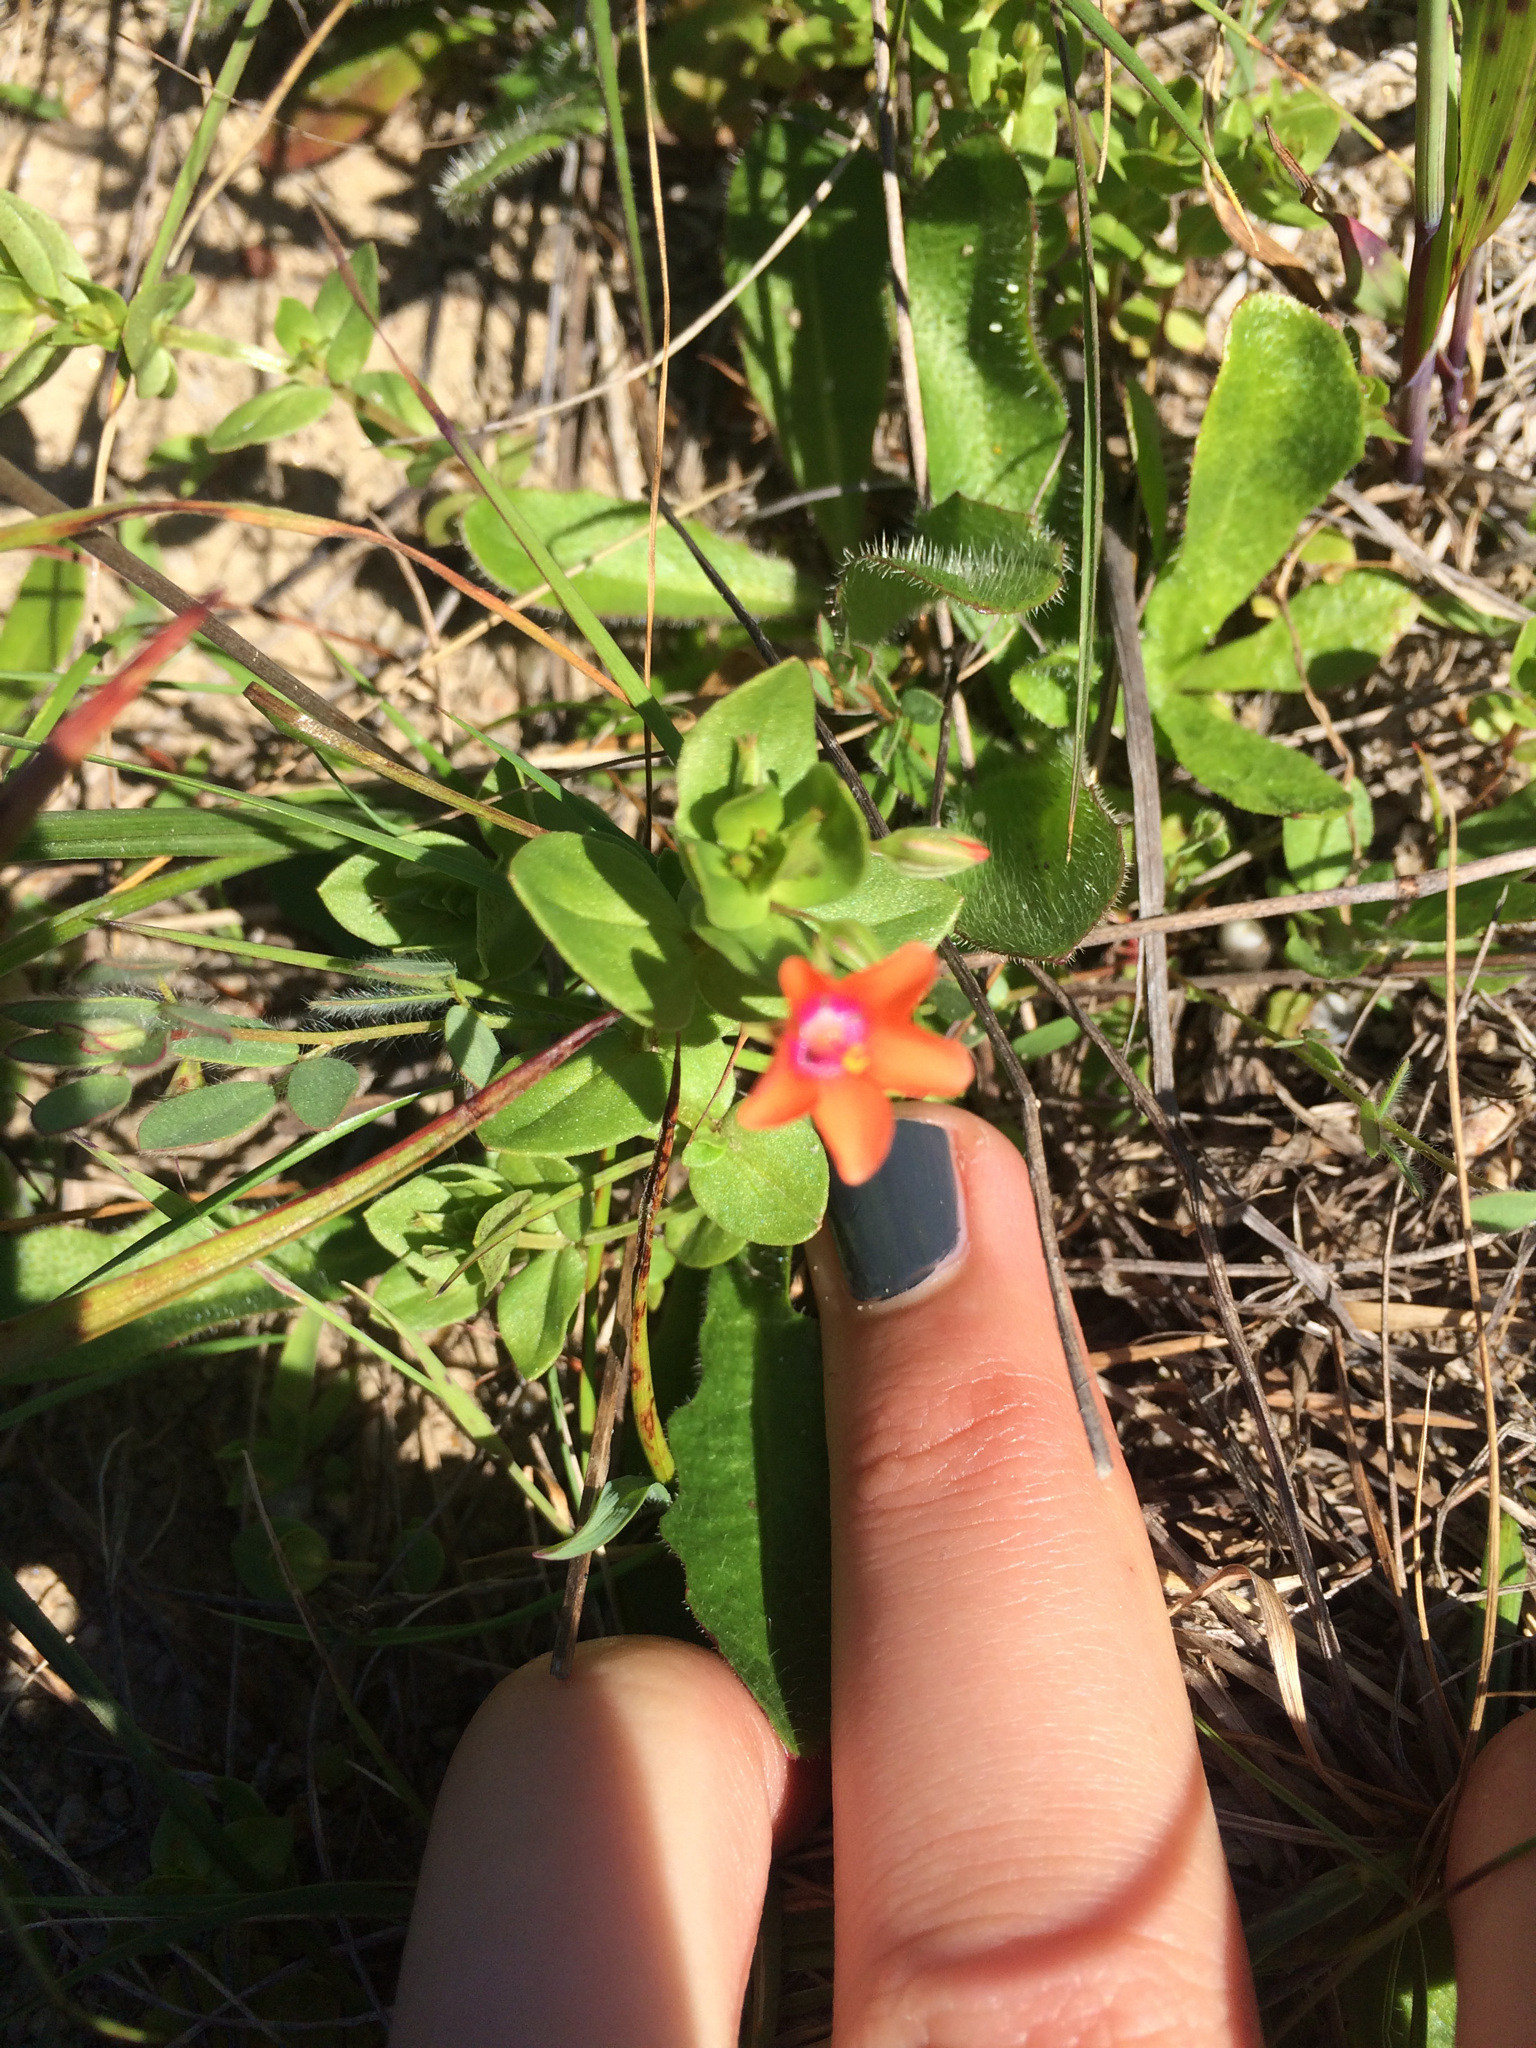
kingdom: Plantae
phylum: Tracheophyta
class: Magnoliopsida
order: Ericales
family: Primulaceae
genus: Lysimachia
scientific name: Lysimachia arvensis
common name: Scarlet pimpernel
